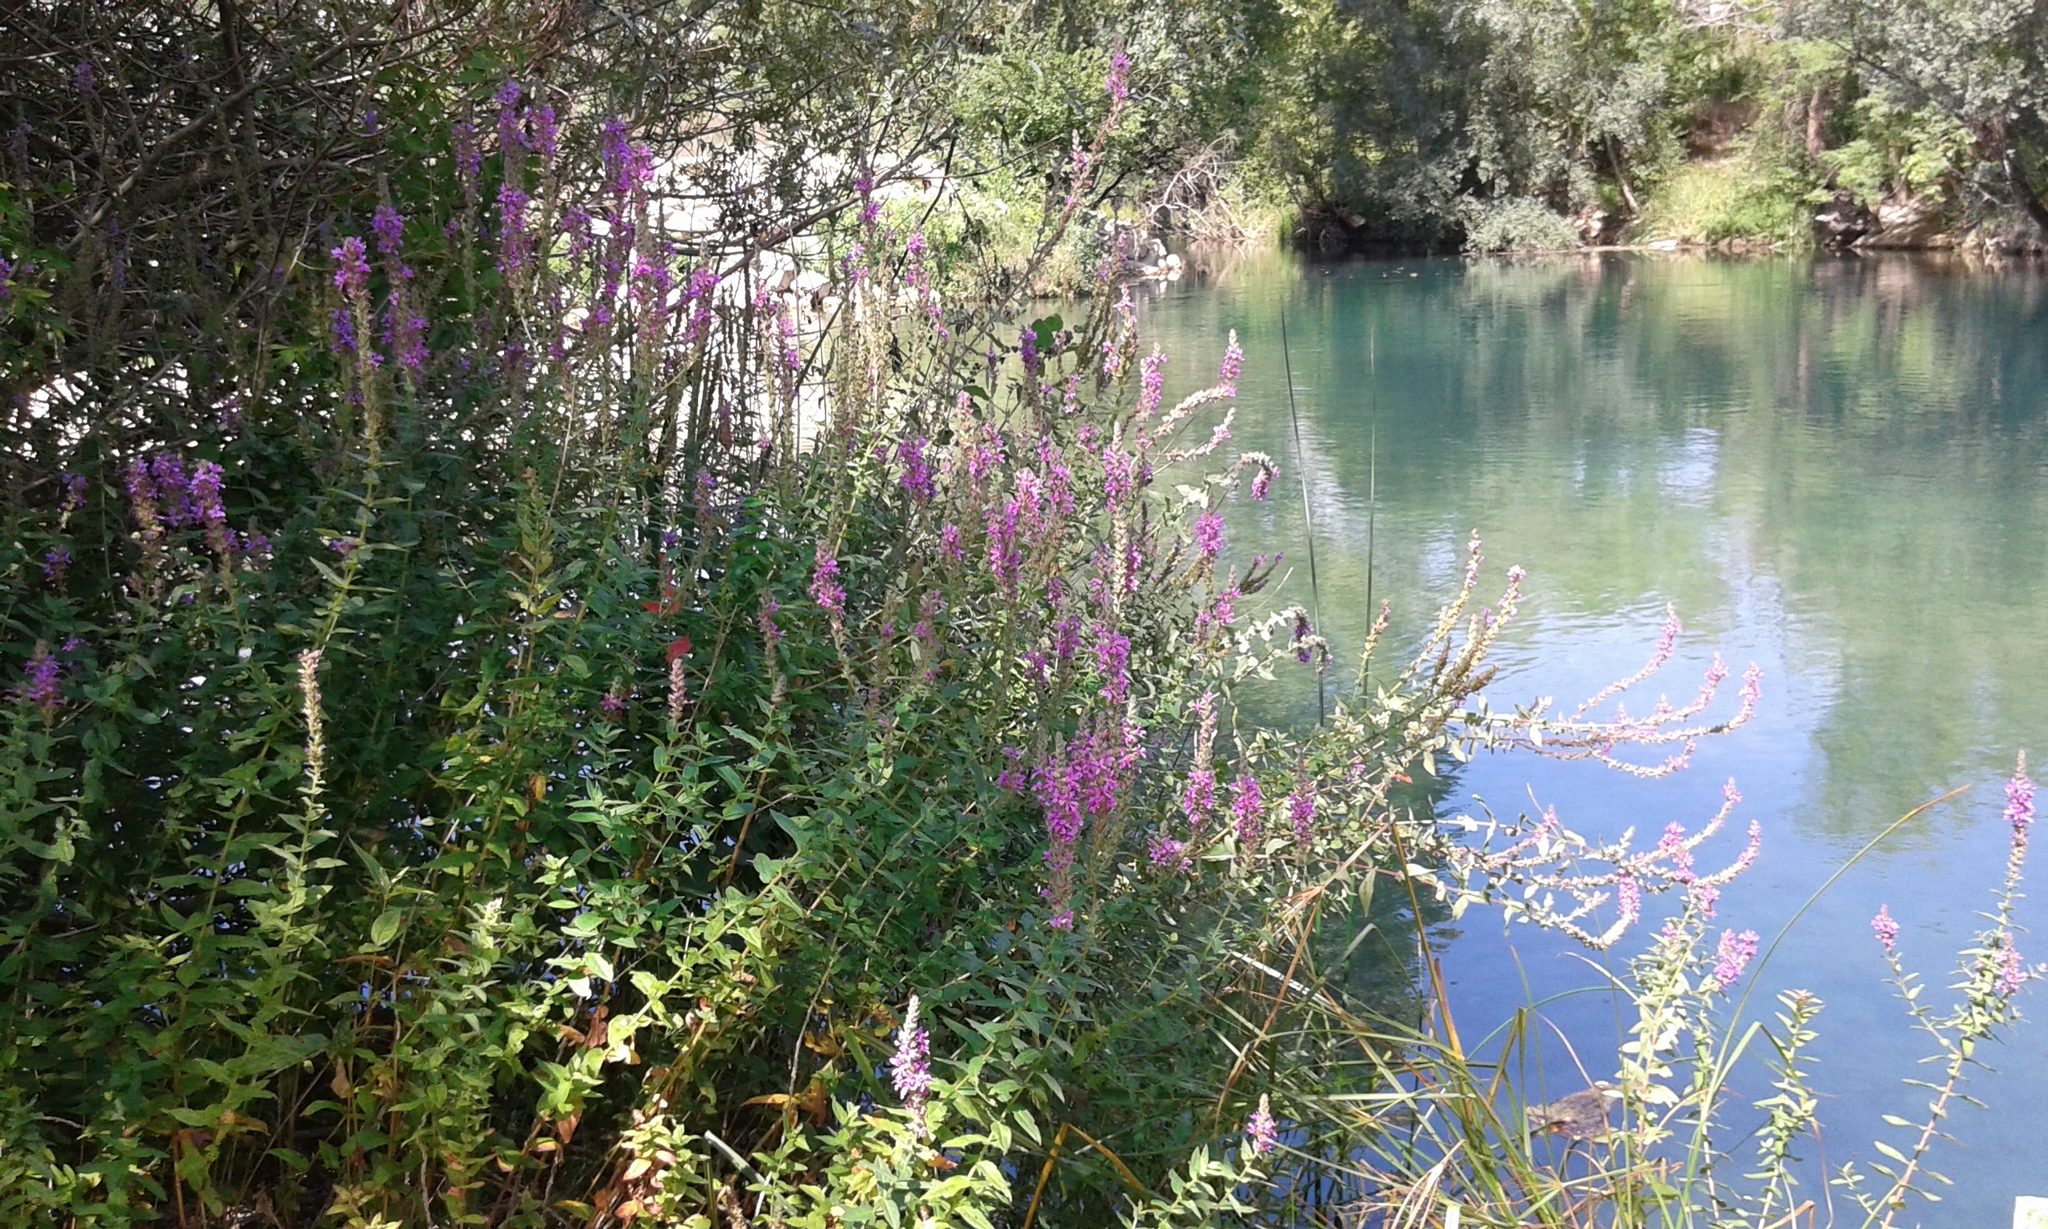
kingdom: Plantae
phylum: Tracheophyta
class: Magnoliopsida
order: Myrtales
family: Lythraceae
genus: Lythrum
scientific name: Lythrum salicaria
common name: Purple loosestrife
